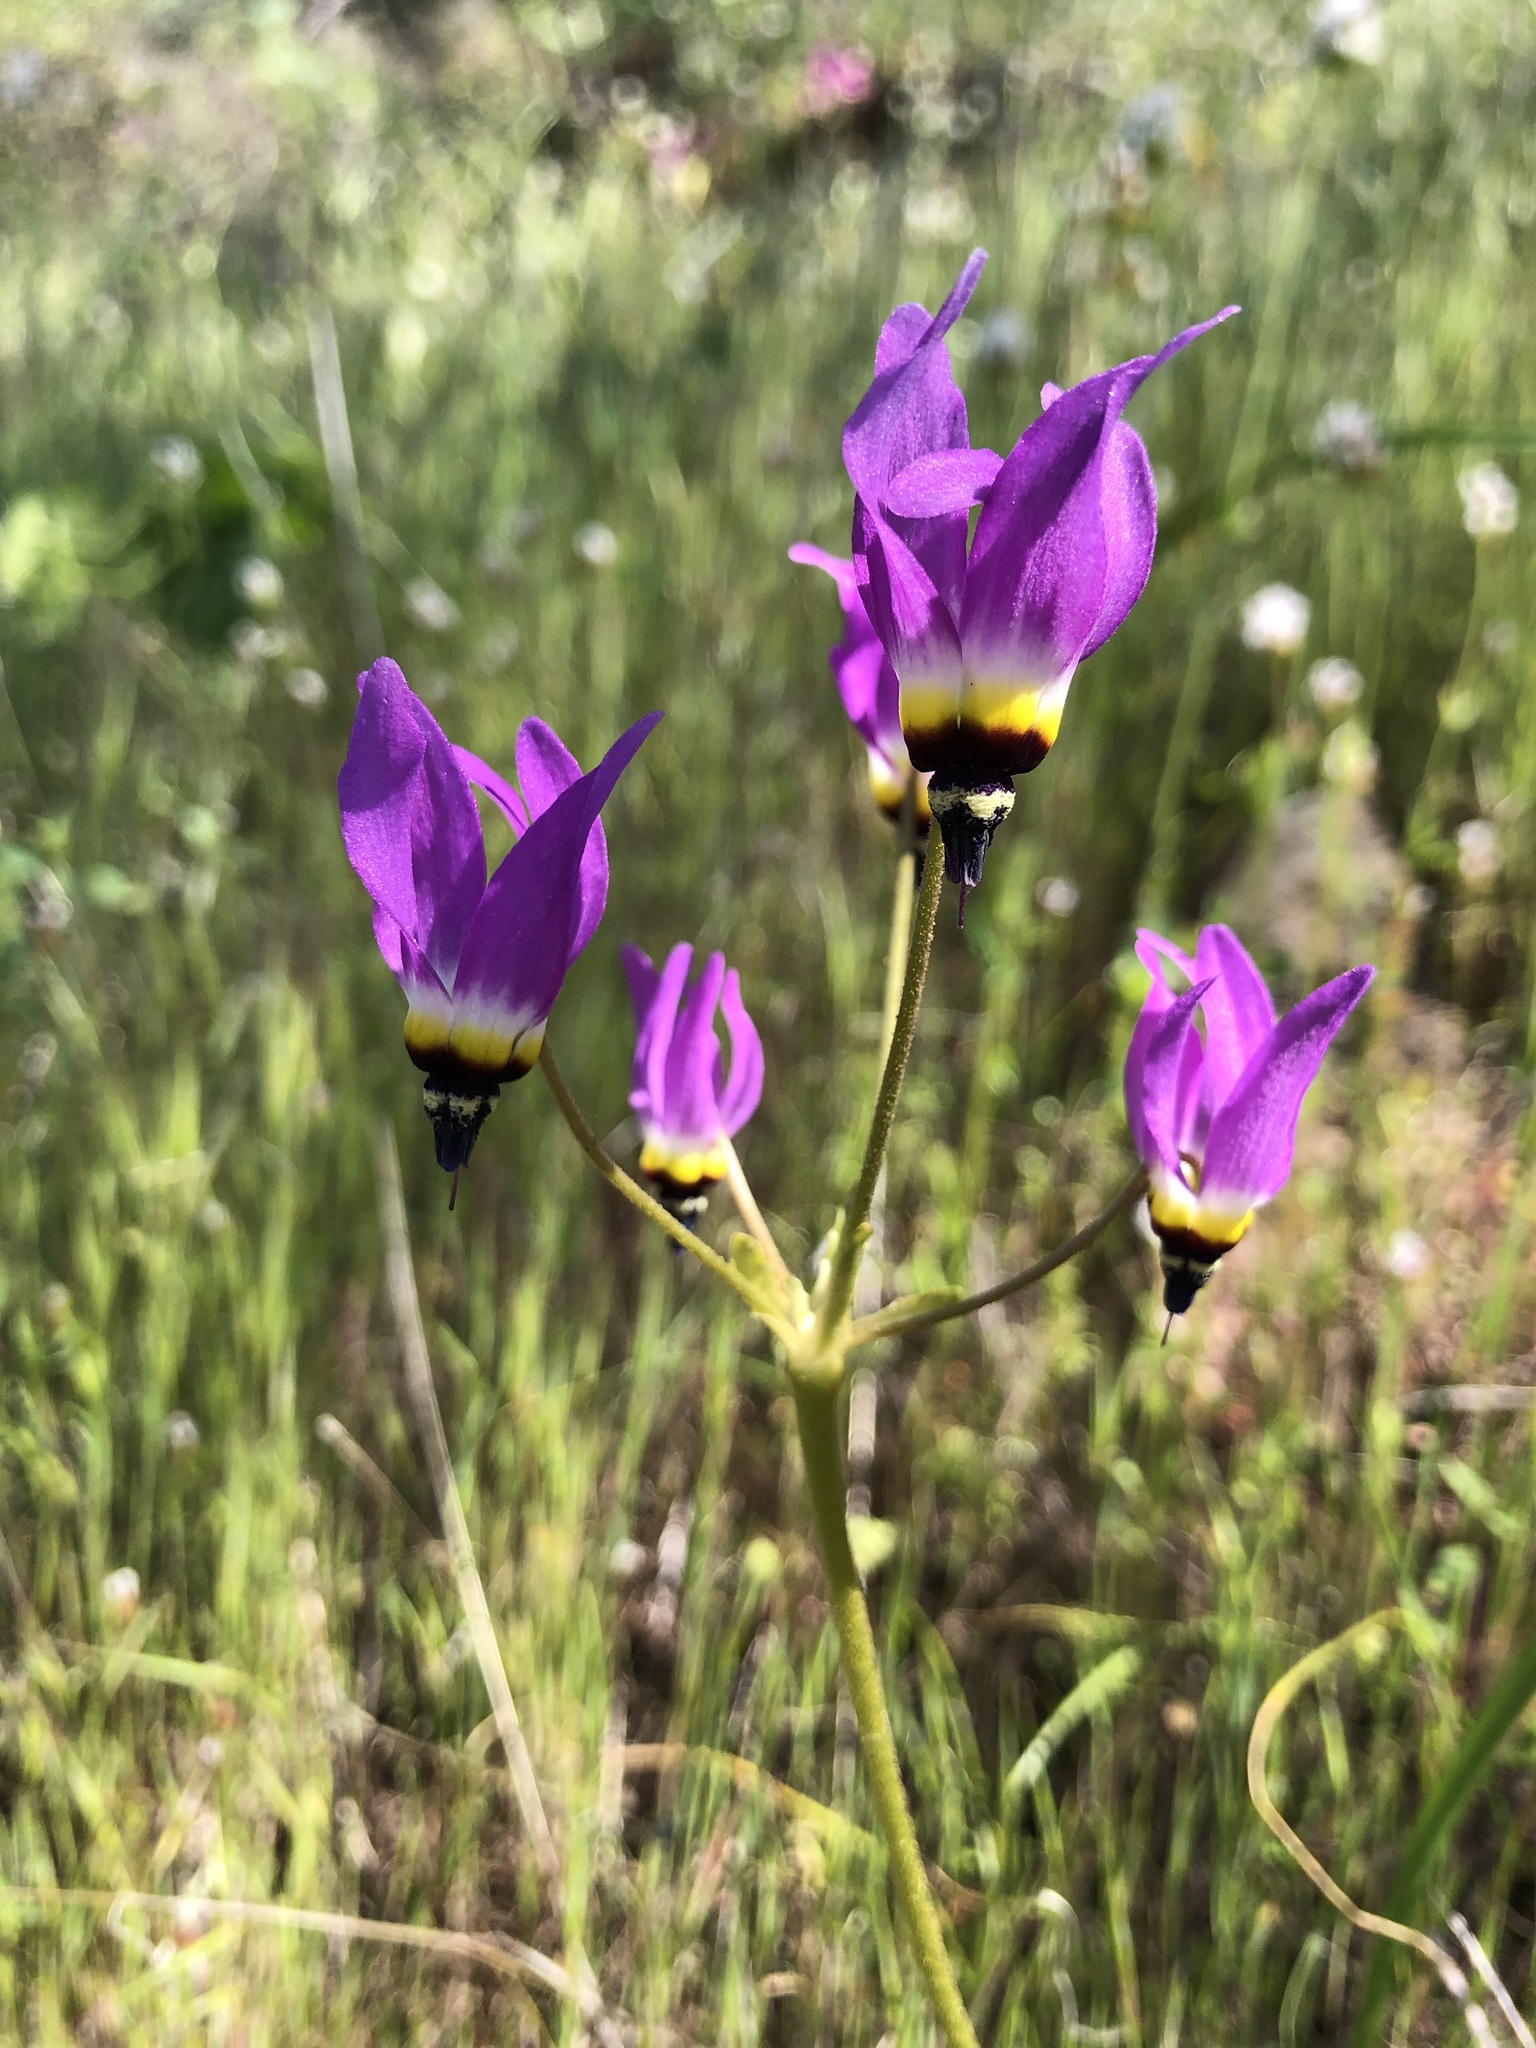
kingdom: Plantae
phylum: Tracheophyta
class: Magnoliopsida
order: Ericales
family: Primulaceae
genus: Dodecatheon
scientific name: Dodecatheon clevelandii
